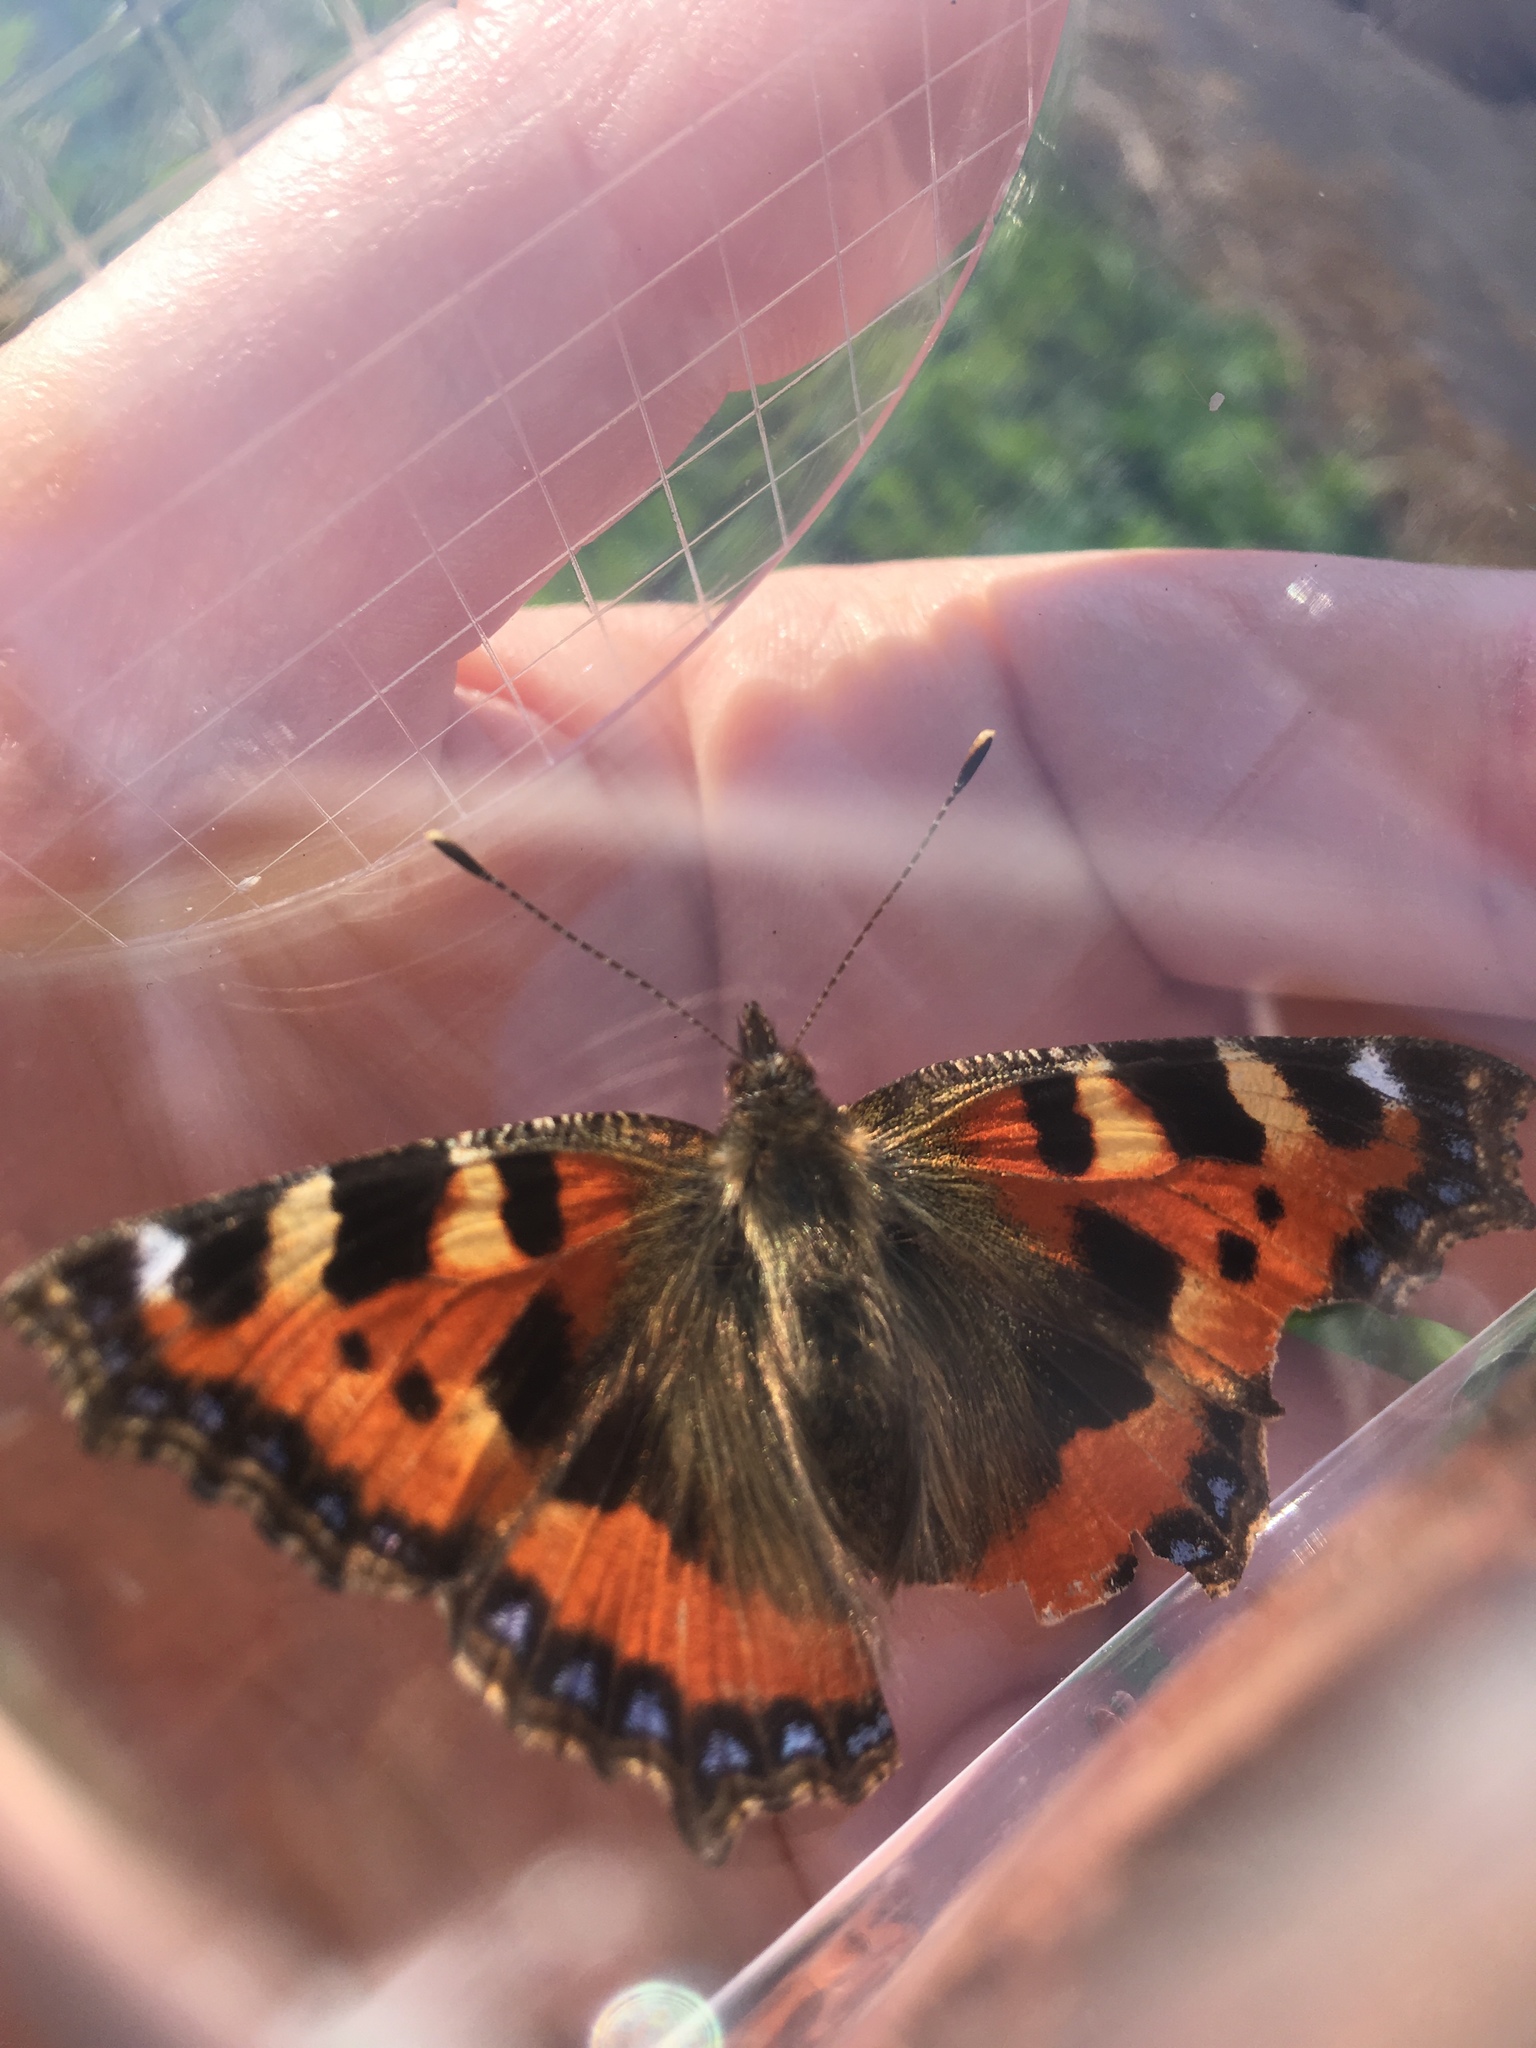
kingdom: Animalia
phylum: Arthropoda
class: Insecta
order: Lepidoptera
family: Nymphalidae
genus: Aglais
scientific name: Aglais urticae
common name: Small tortoiseshell
